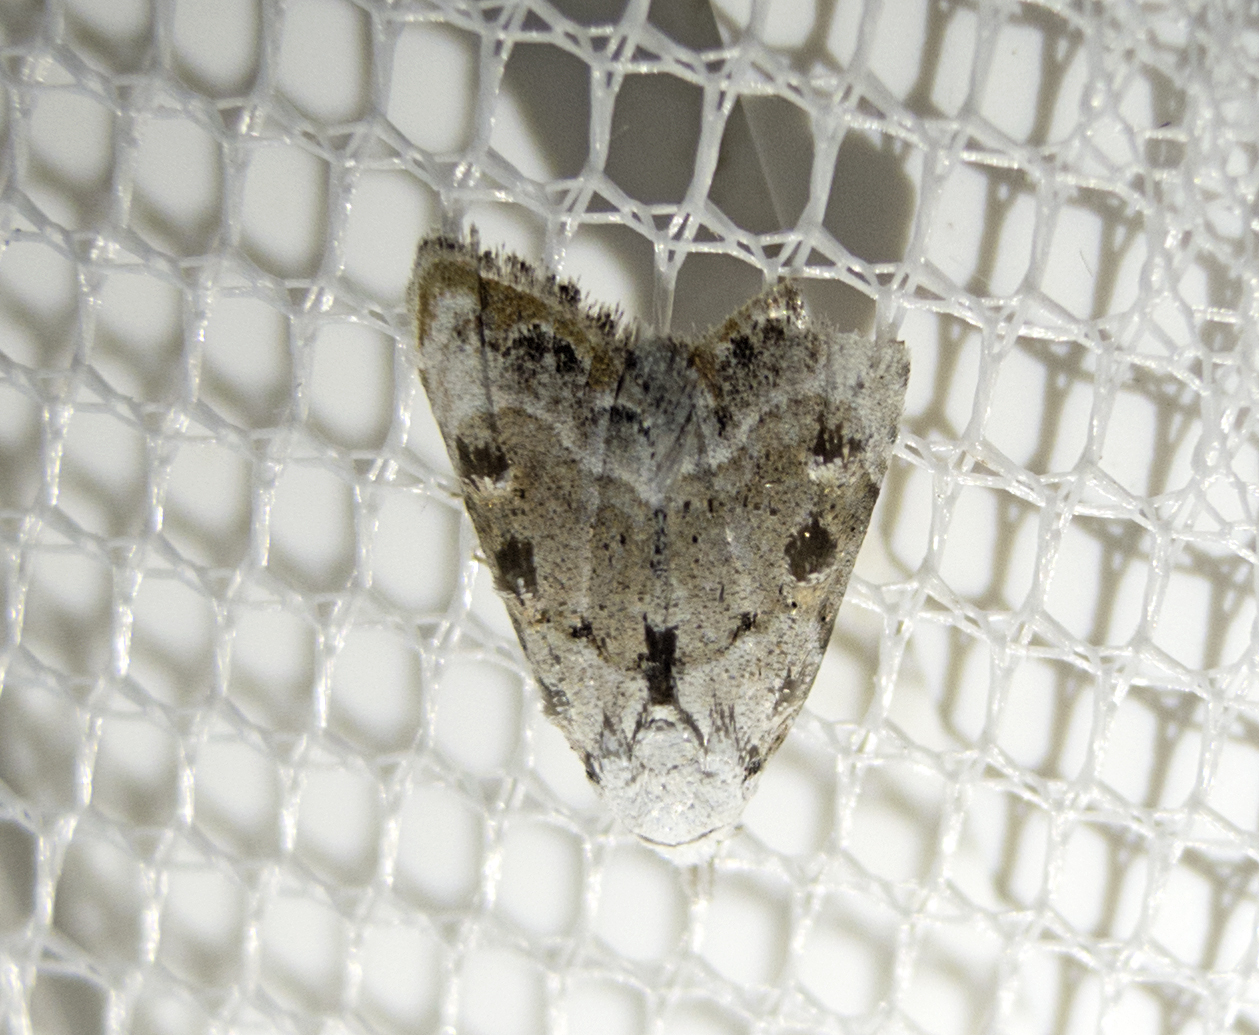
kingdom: Animalia
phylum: Arthropoda
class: Insecta
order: Lepidoptera
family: Nolidae
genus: Nola
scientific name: Nola chlamitulalis
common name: Jersey black arches
